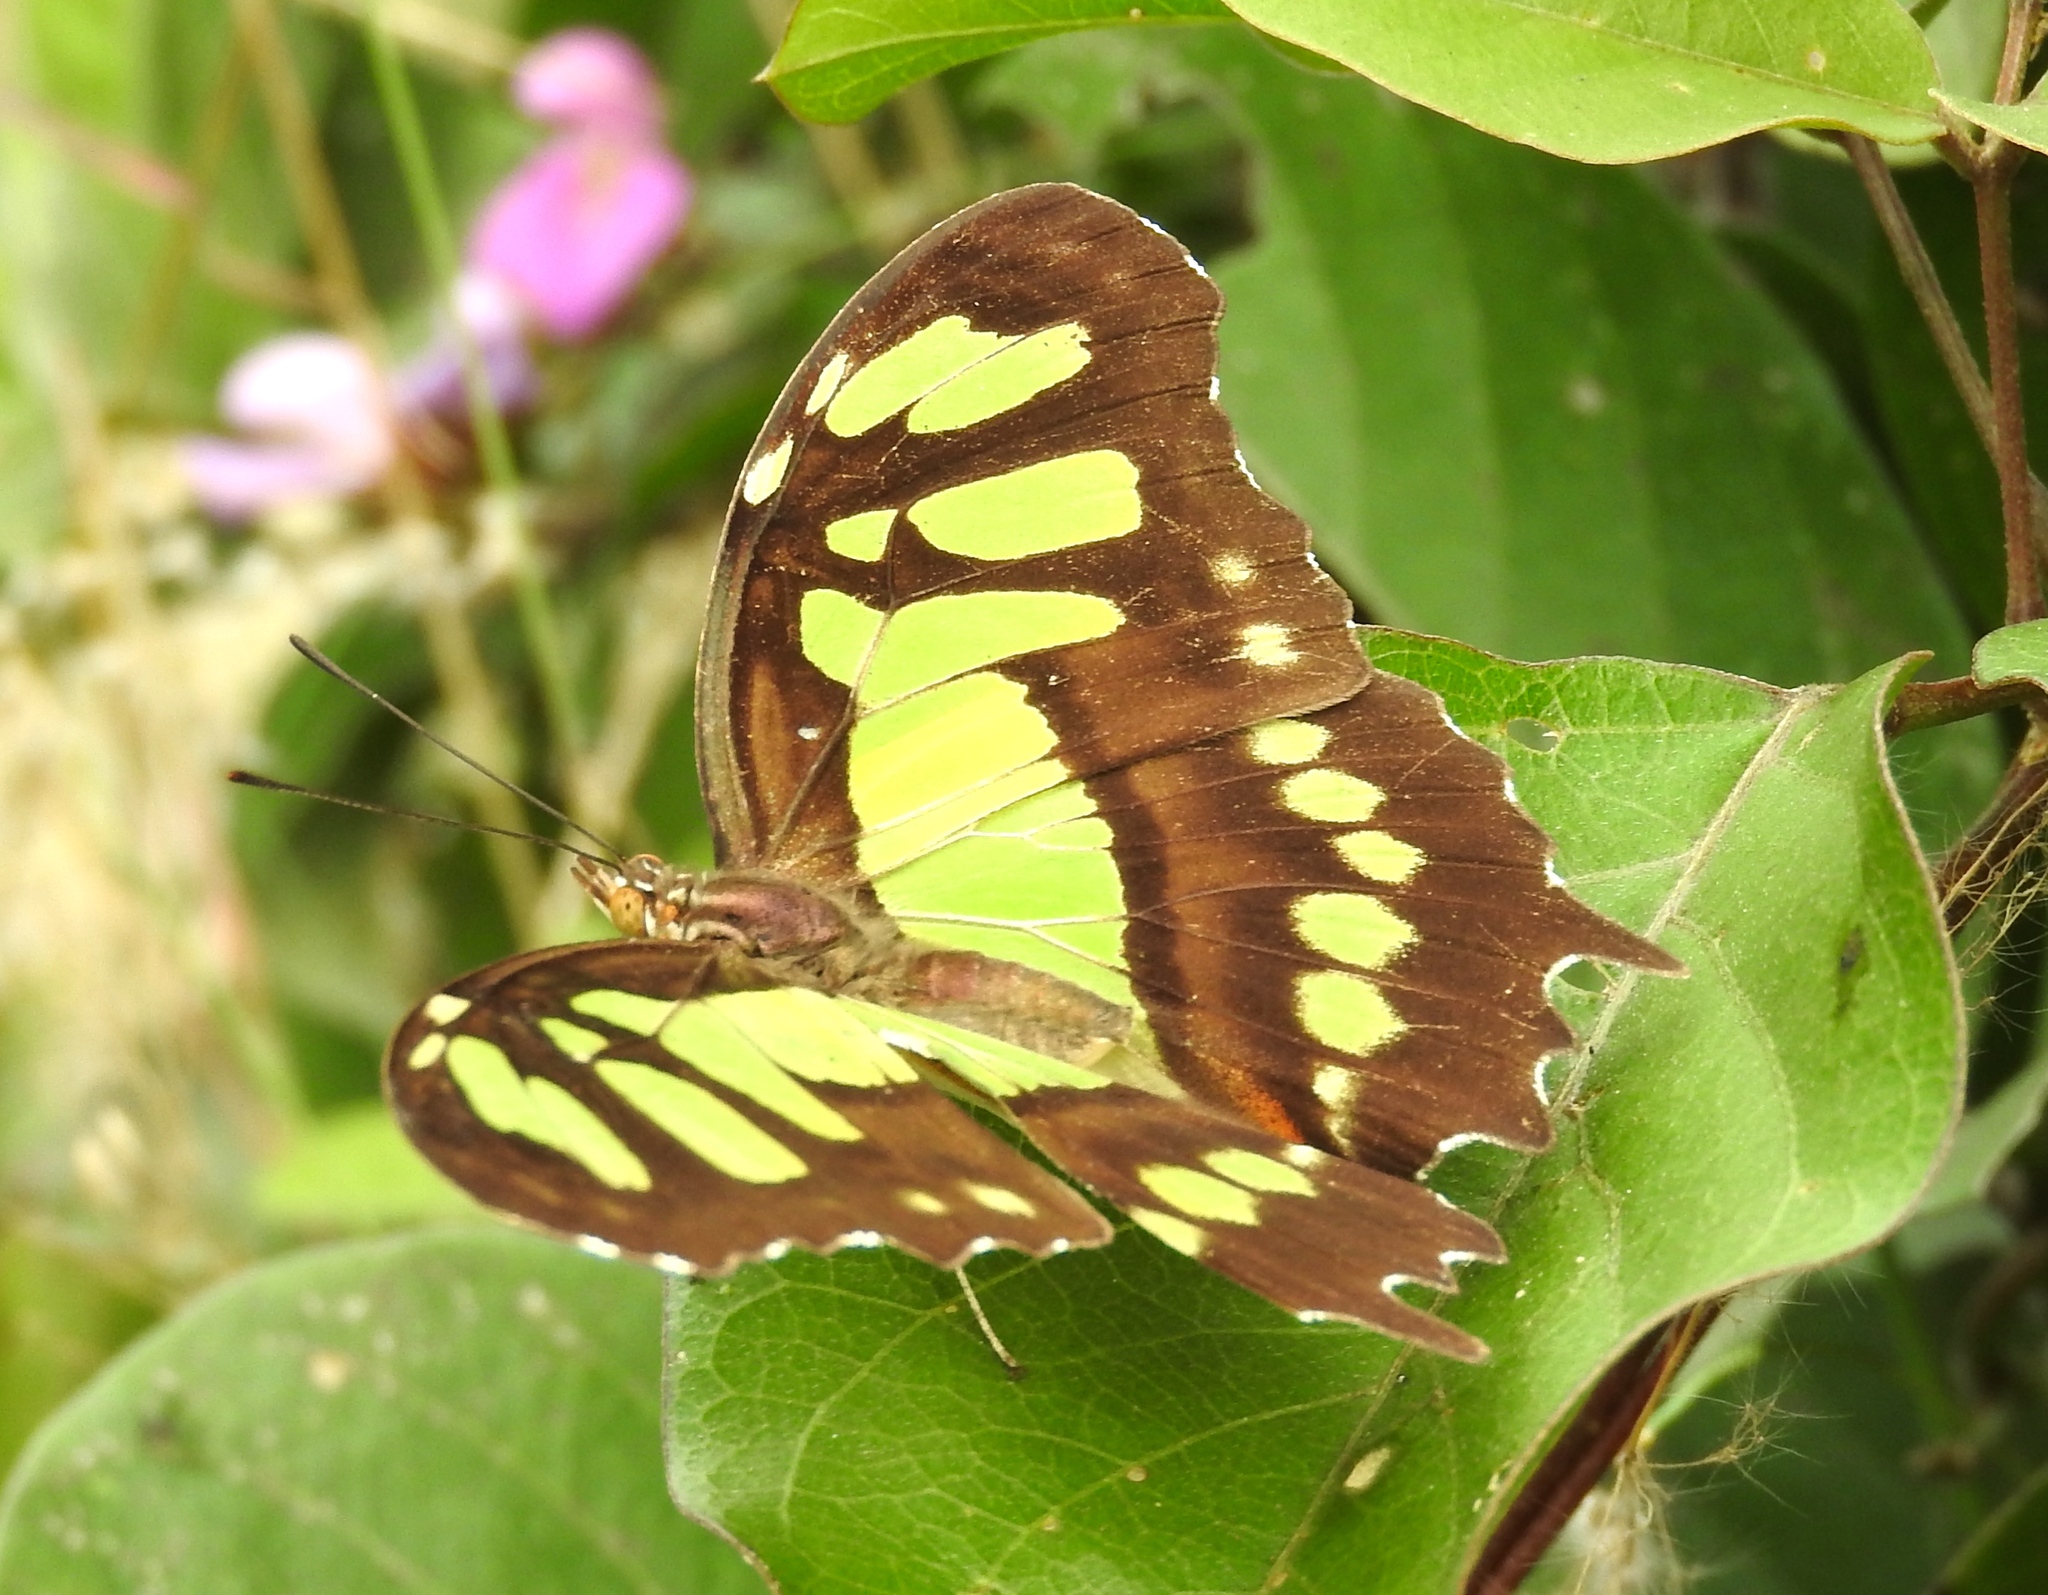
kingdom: Animalia
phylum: Arthropoda
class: Insecta
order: Lepidoptera
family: Nymphalidae
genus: Siproeta
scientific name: Siproeta stelenes
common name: Malachite
